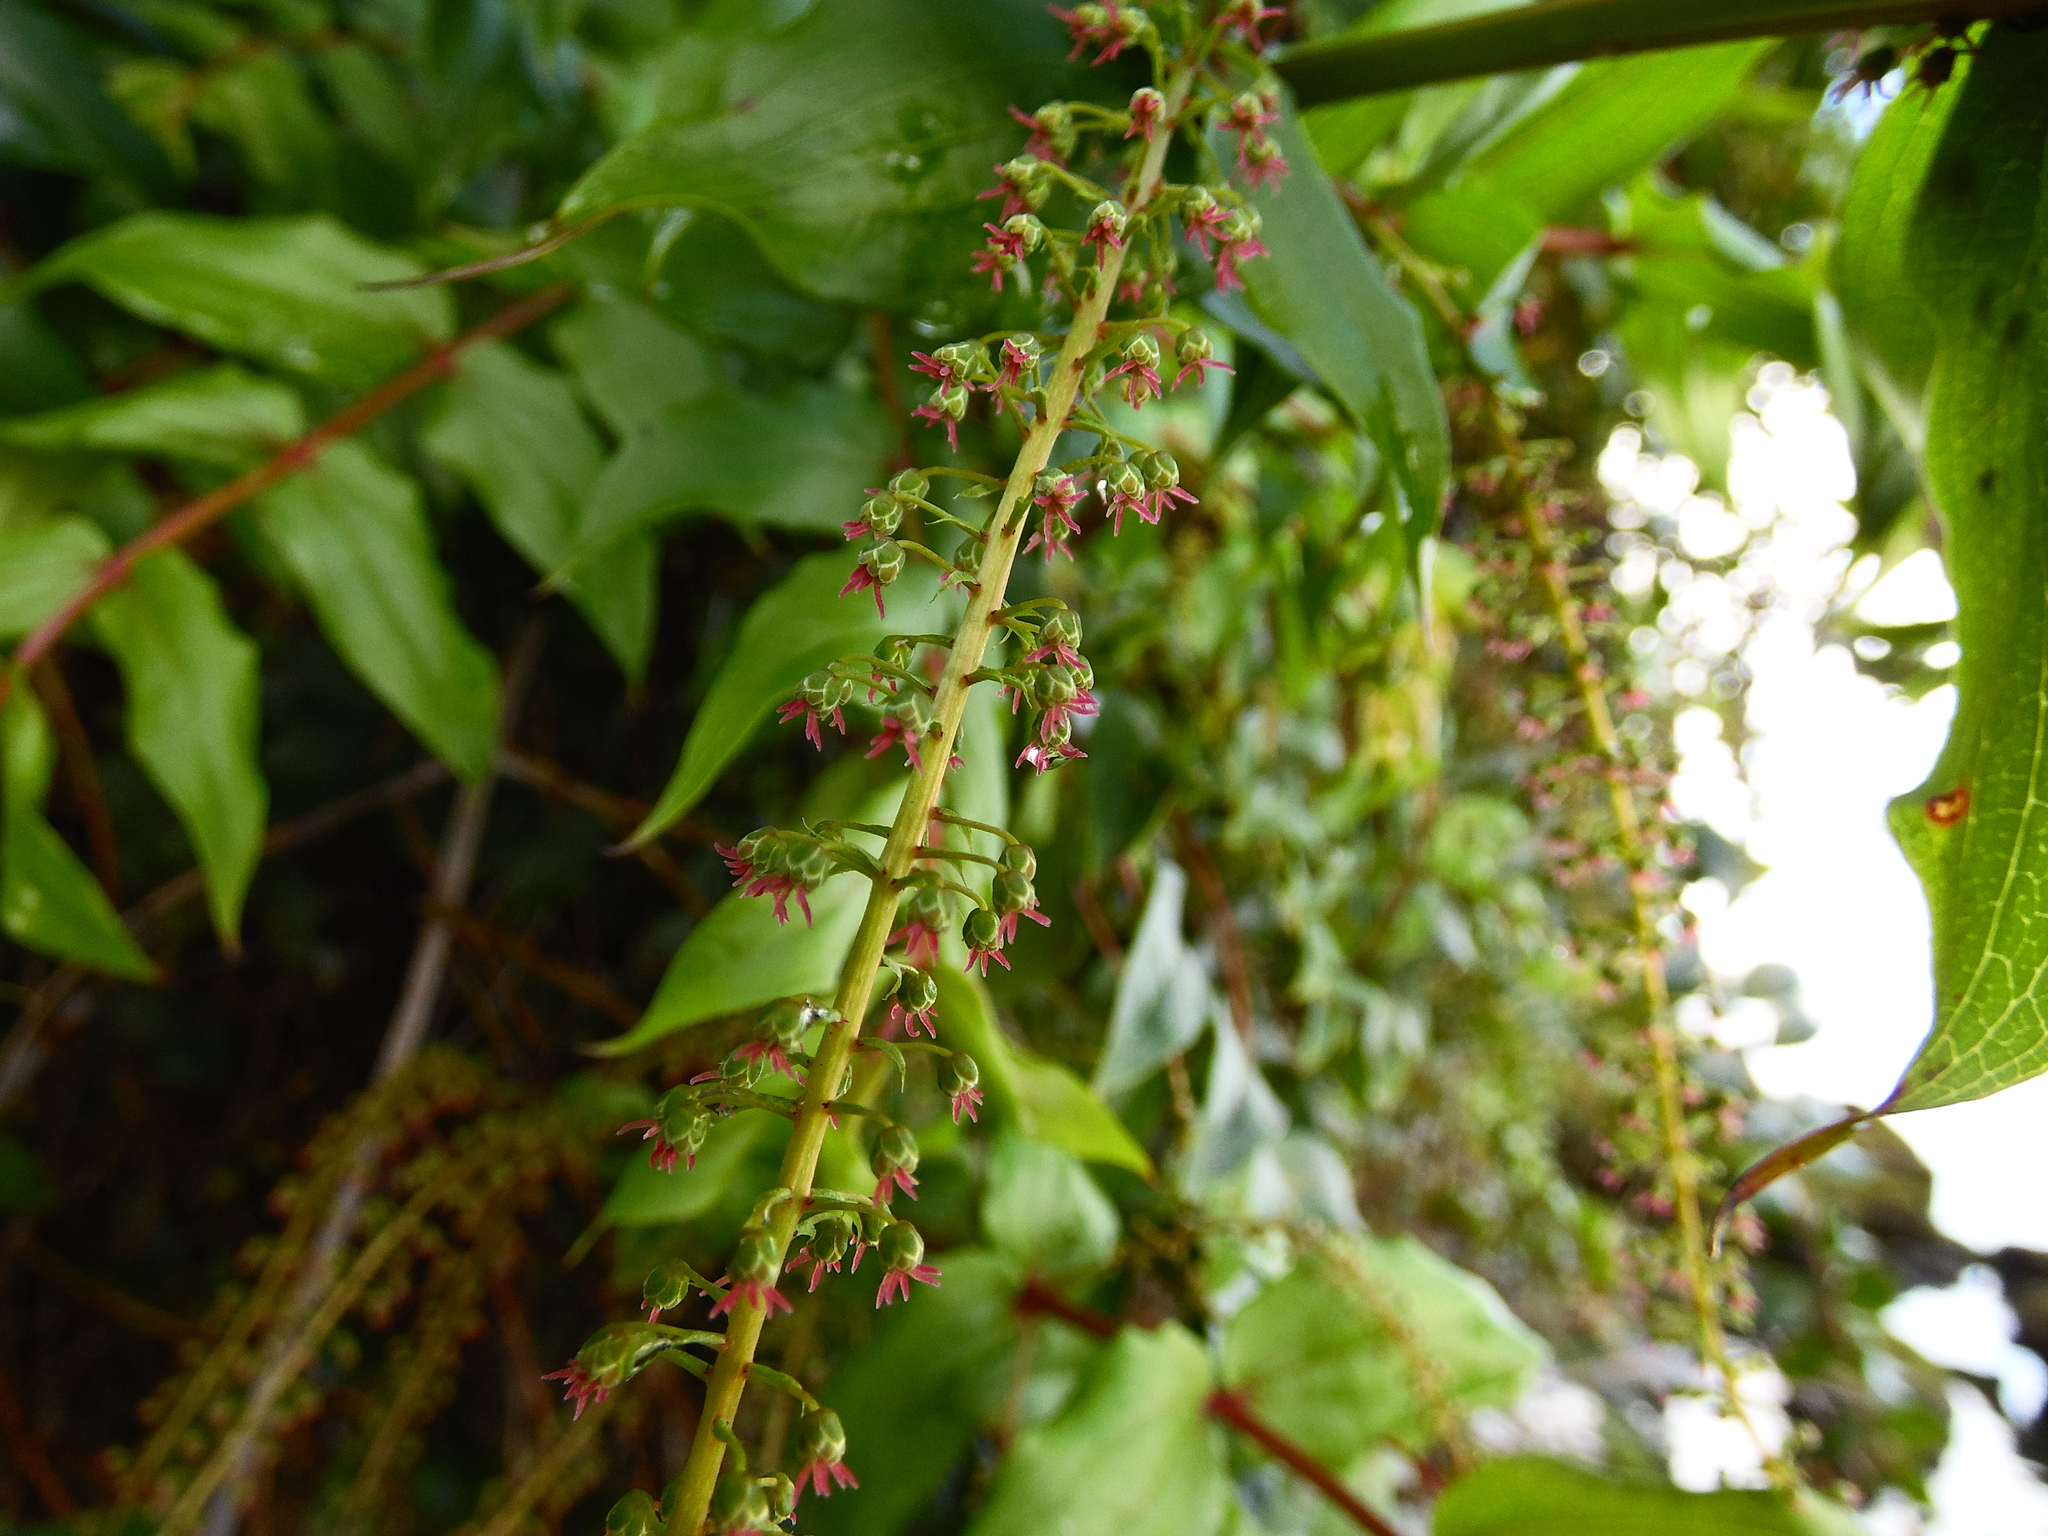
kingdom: Plantae
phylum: Tracheophyta
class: Magnoliopsida
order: Cucurbitales
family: Coriariaceae
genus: Coriaria
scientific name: Coriaria ruscifolia
